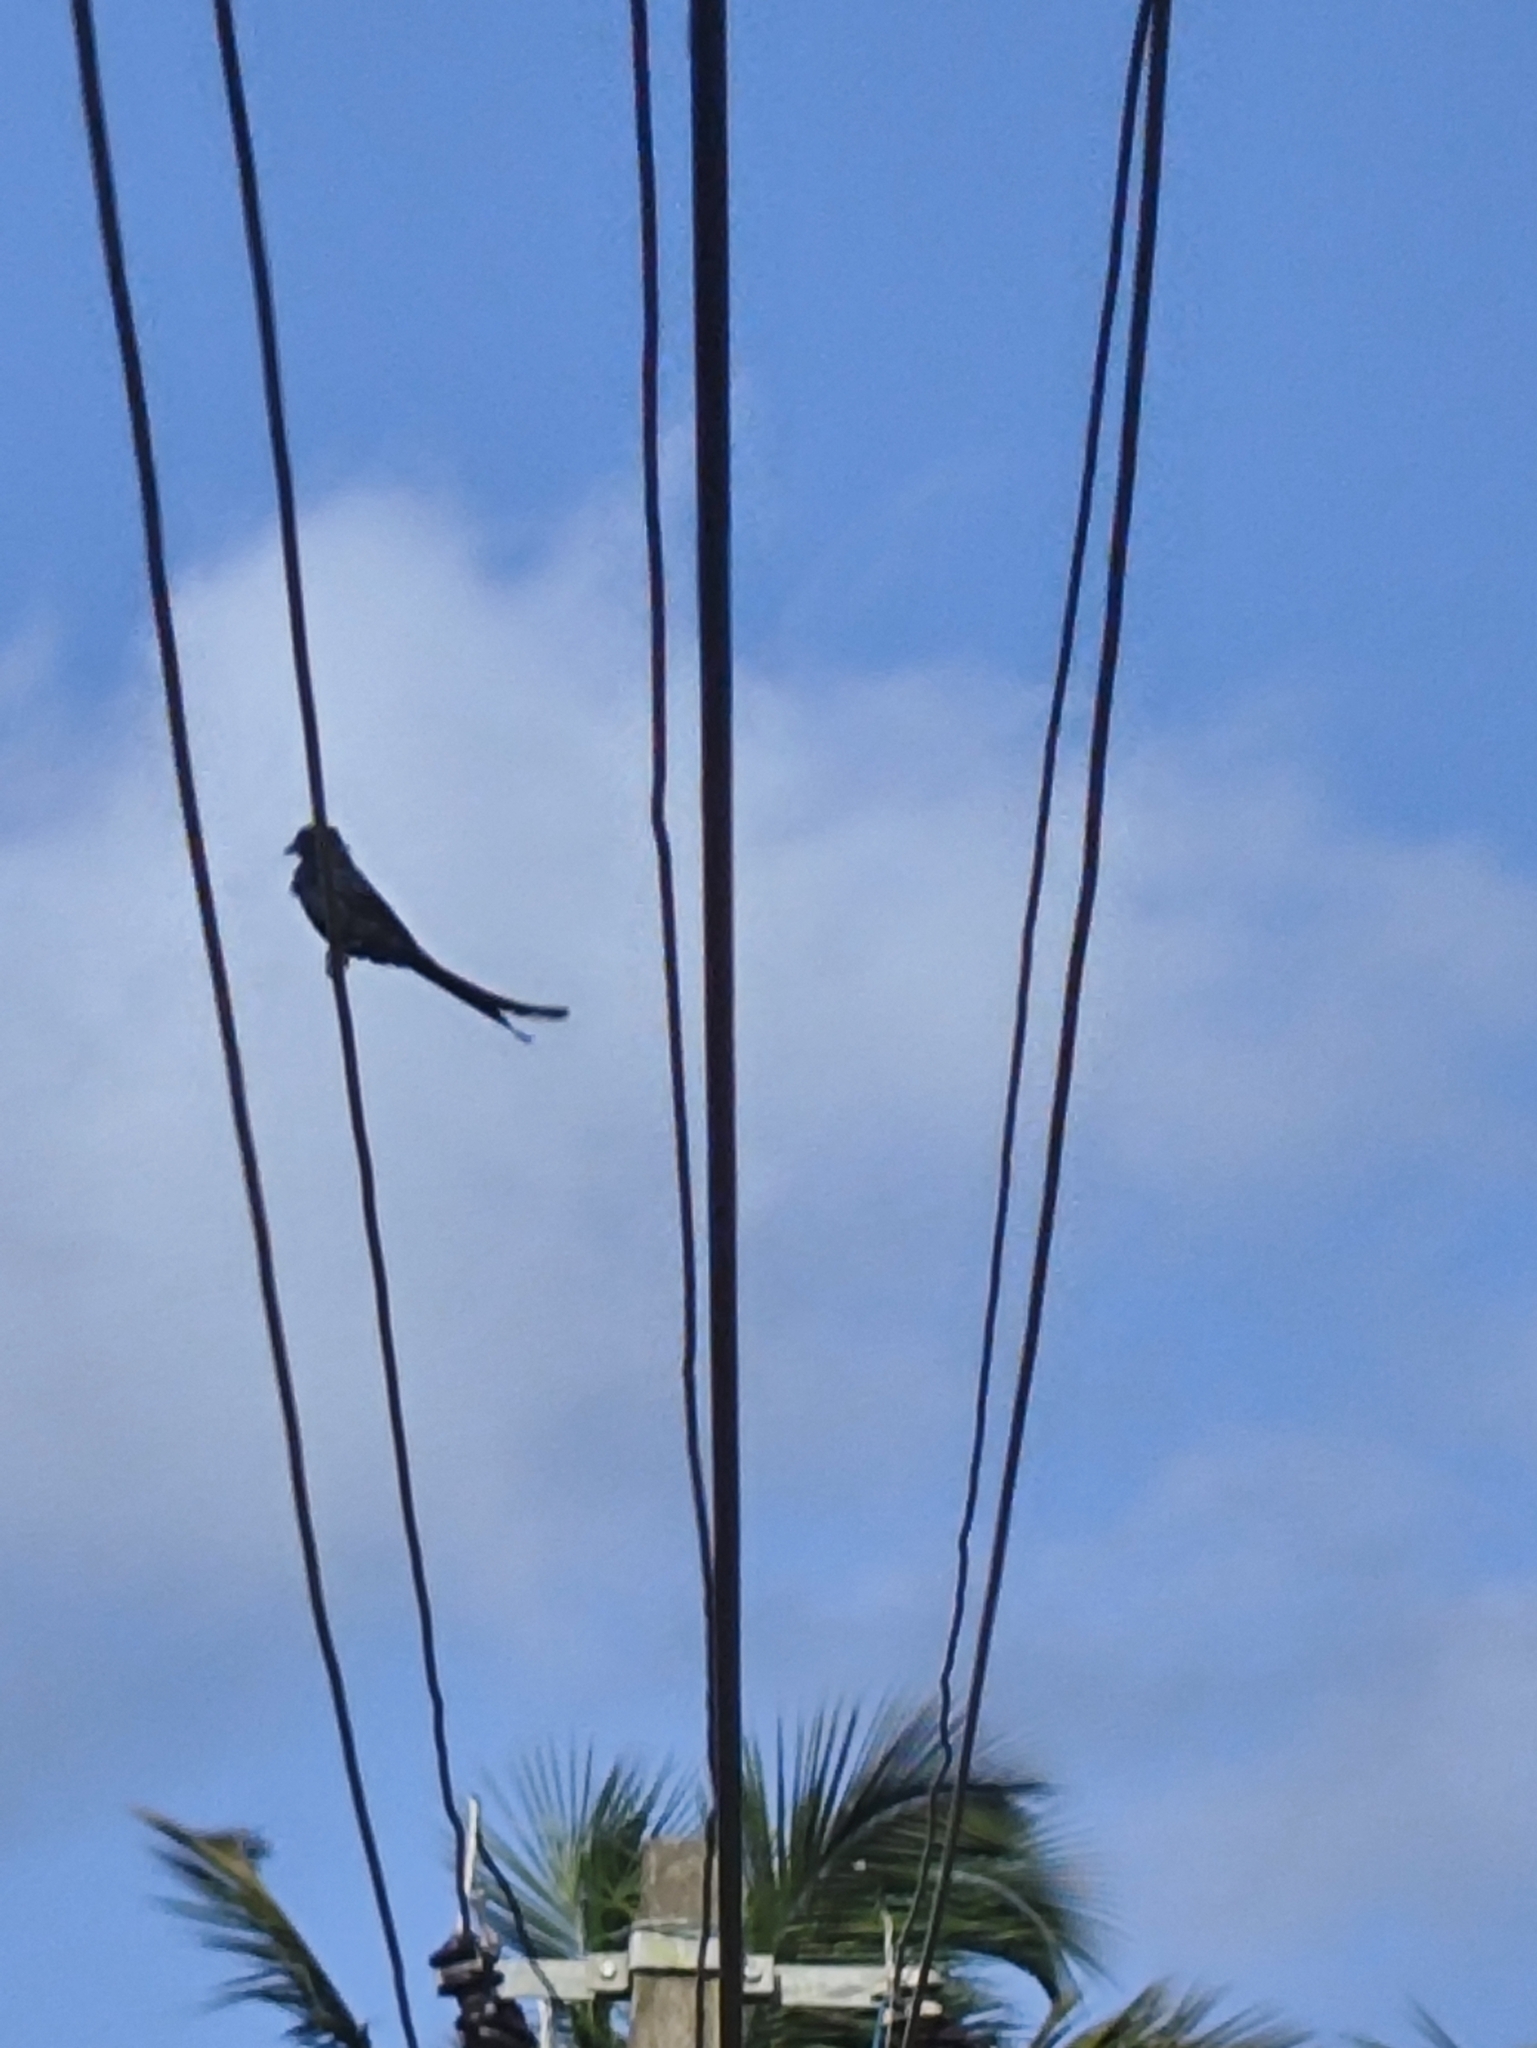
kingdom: Animalia
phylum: Chordata
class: Aves
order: Passeriformes
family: Dicruridae
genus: Dicrurus
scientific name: Dicrurus macrocercus
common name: Black drongo
